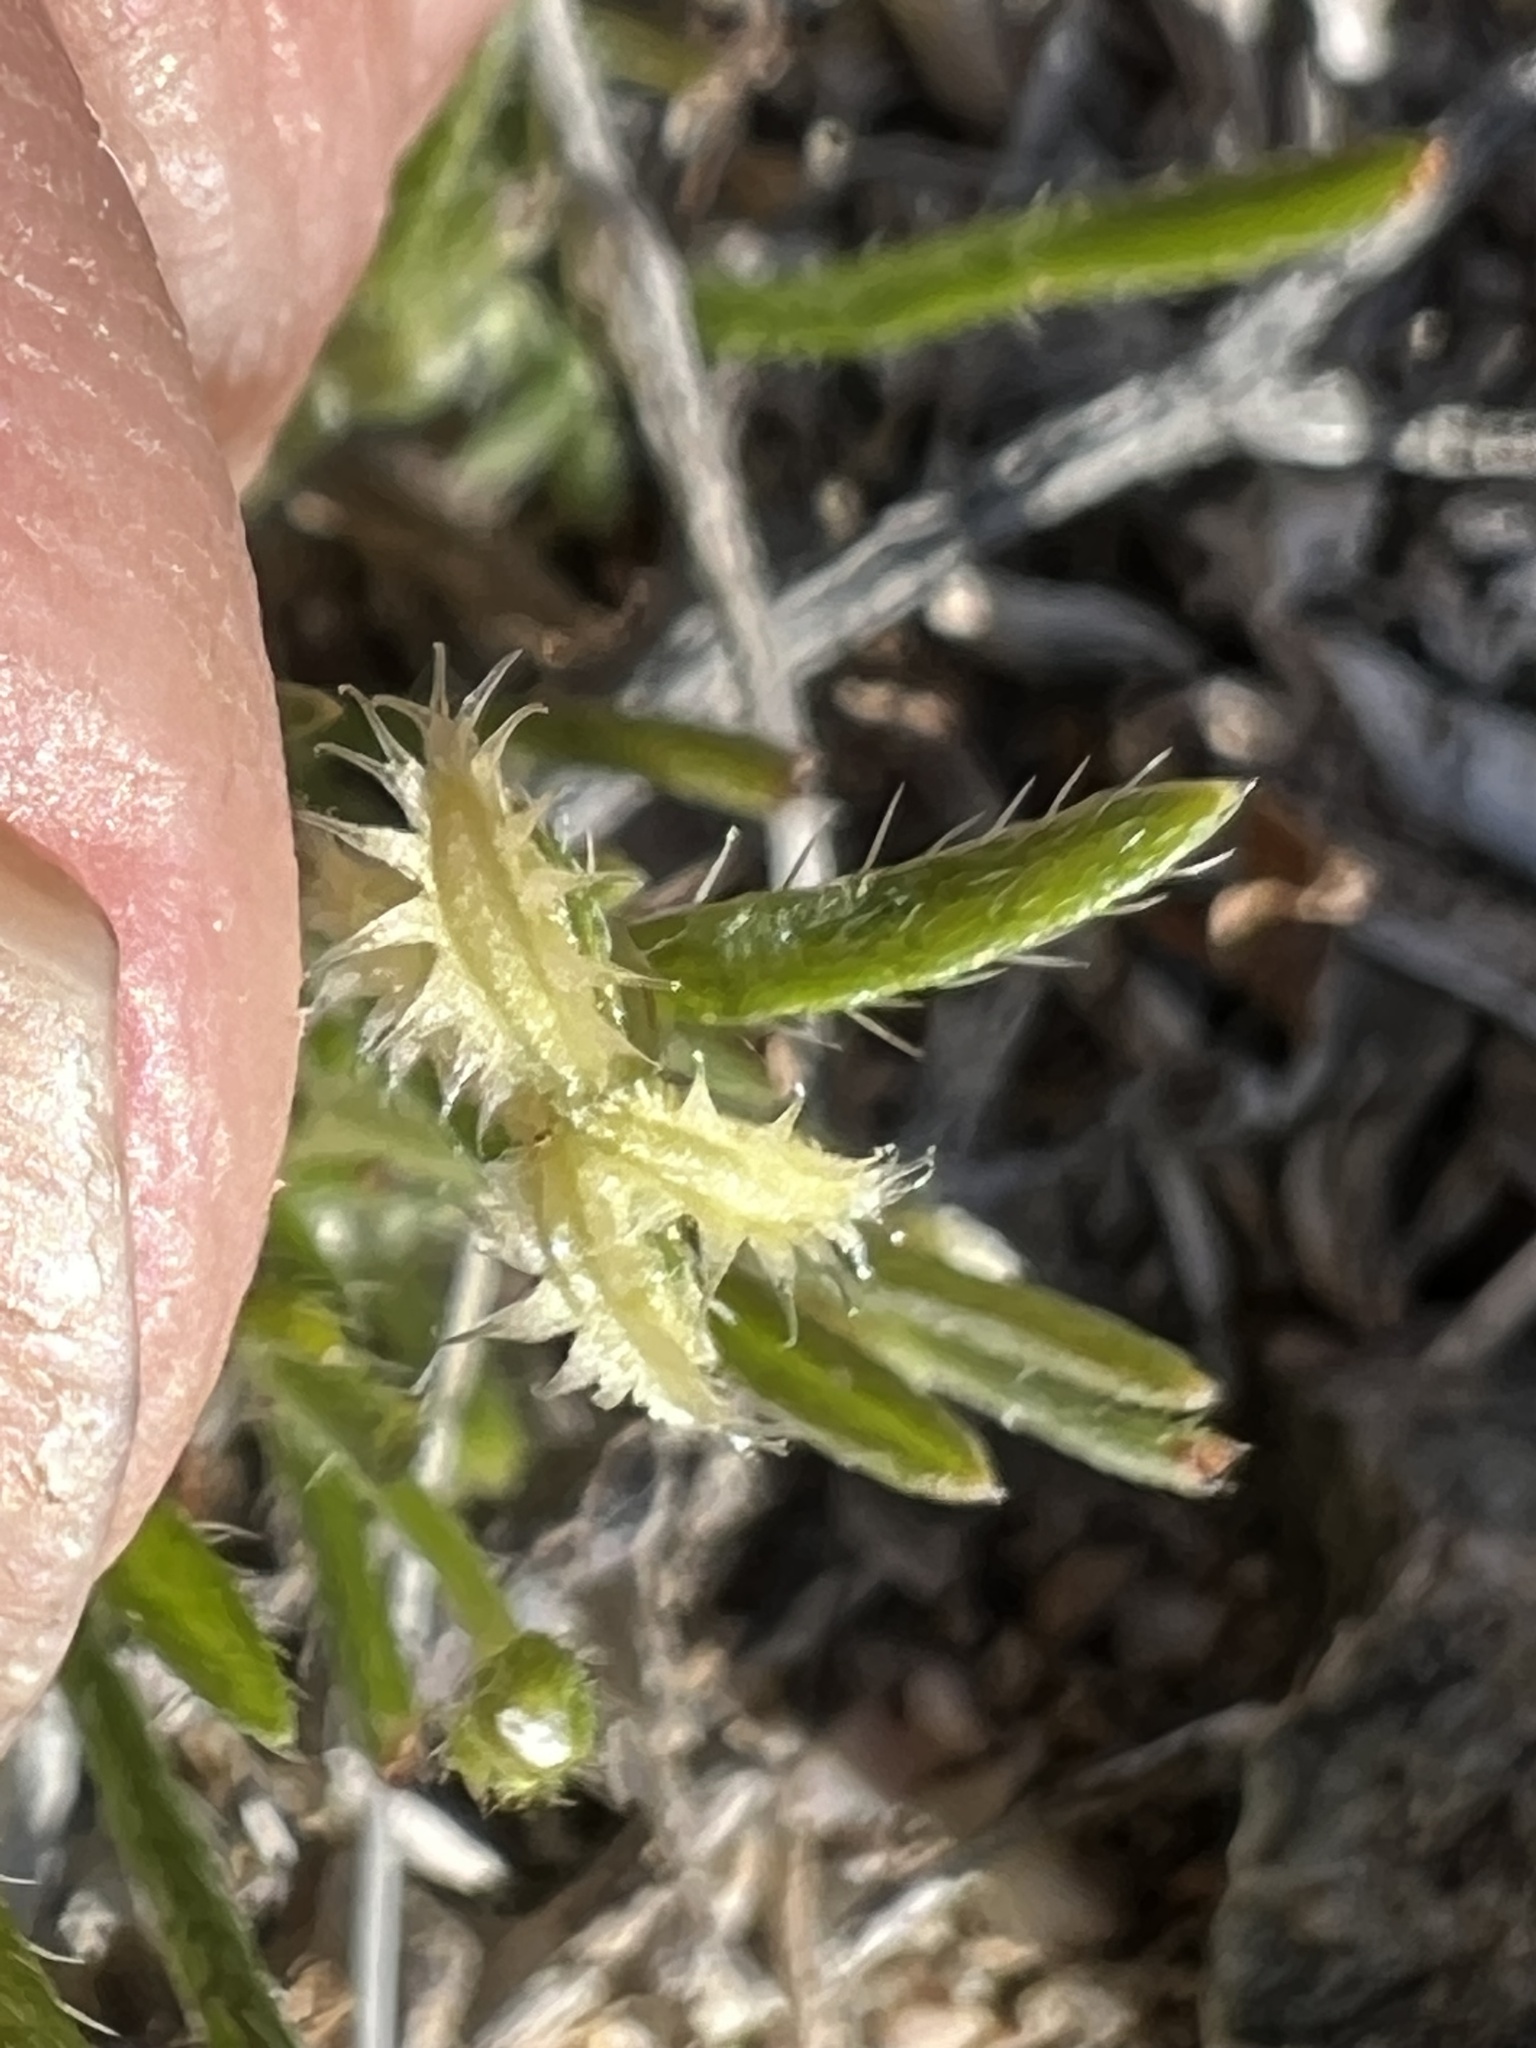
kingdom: Plantae
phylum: Tracheophyta
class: Magnoliopsida
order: Boraginales
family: Boraginaceae
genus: Pectocarya
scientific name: Pectocarya recurvata
